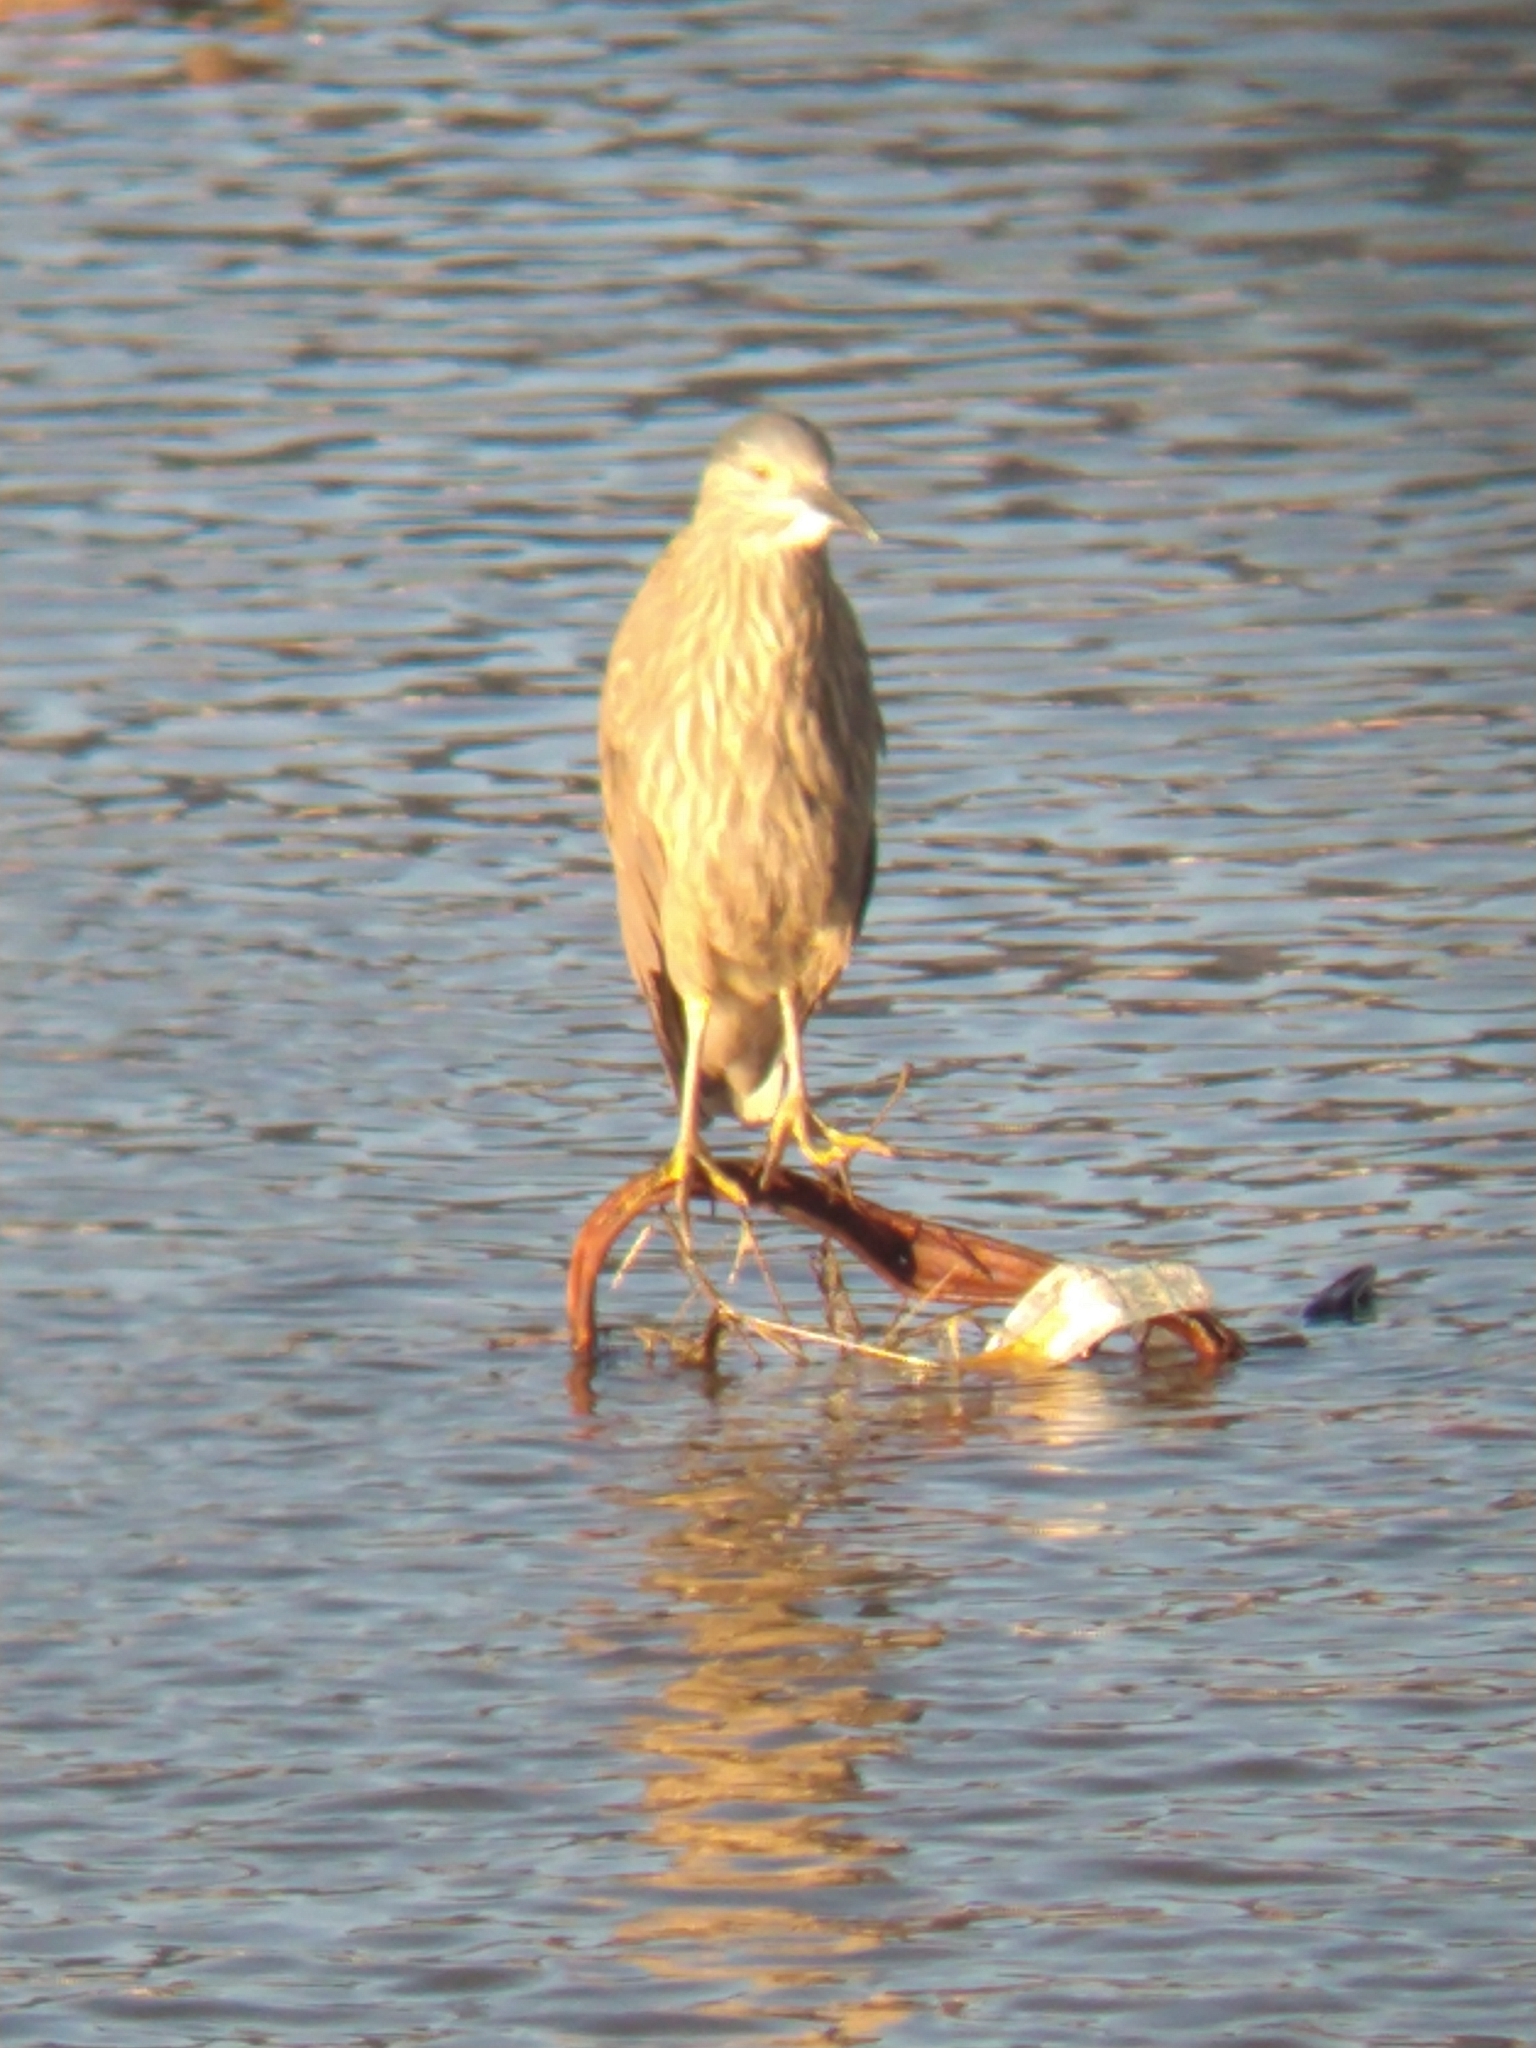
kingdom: Animalia
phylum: Chordata
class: Aves
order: Pelecaniformes
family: Ardeidae
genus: Nycticorax
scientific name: Nycticorax nycticorax
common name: Black-crowned night heron
